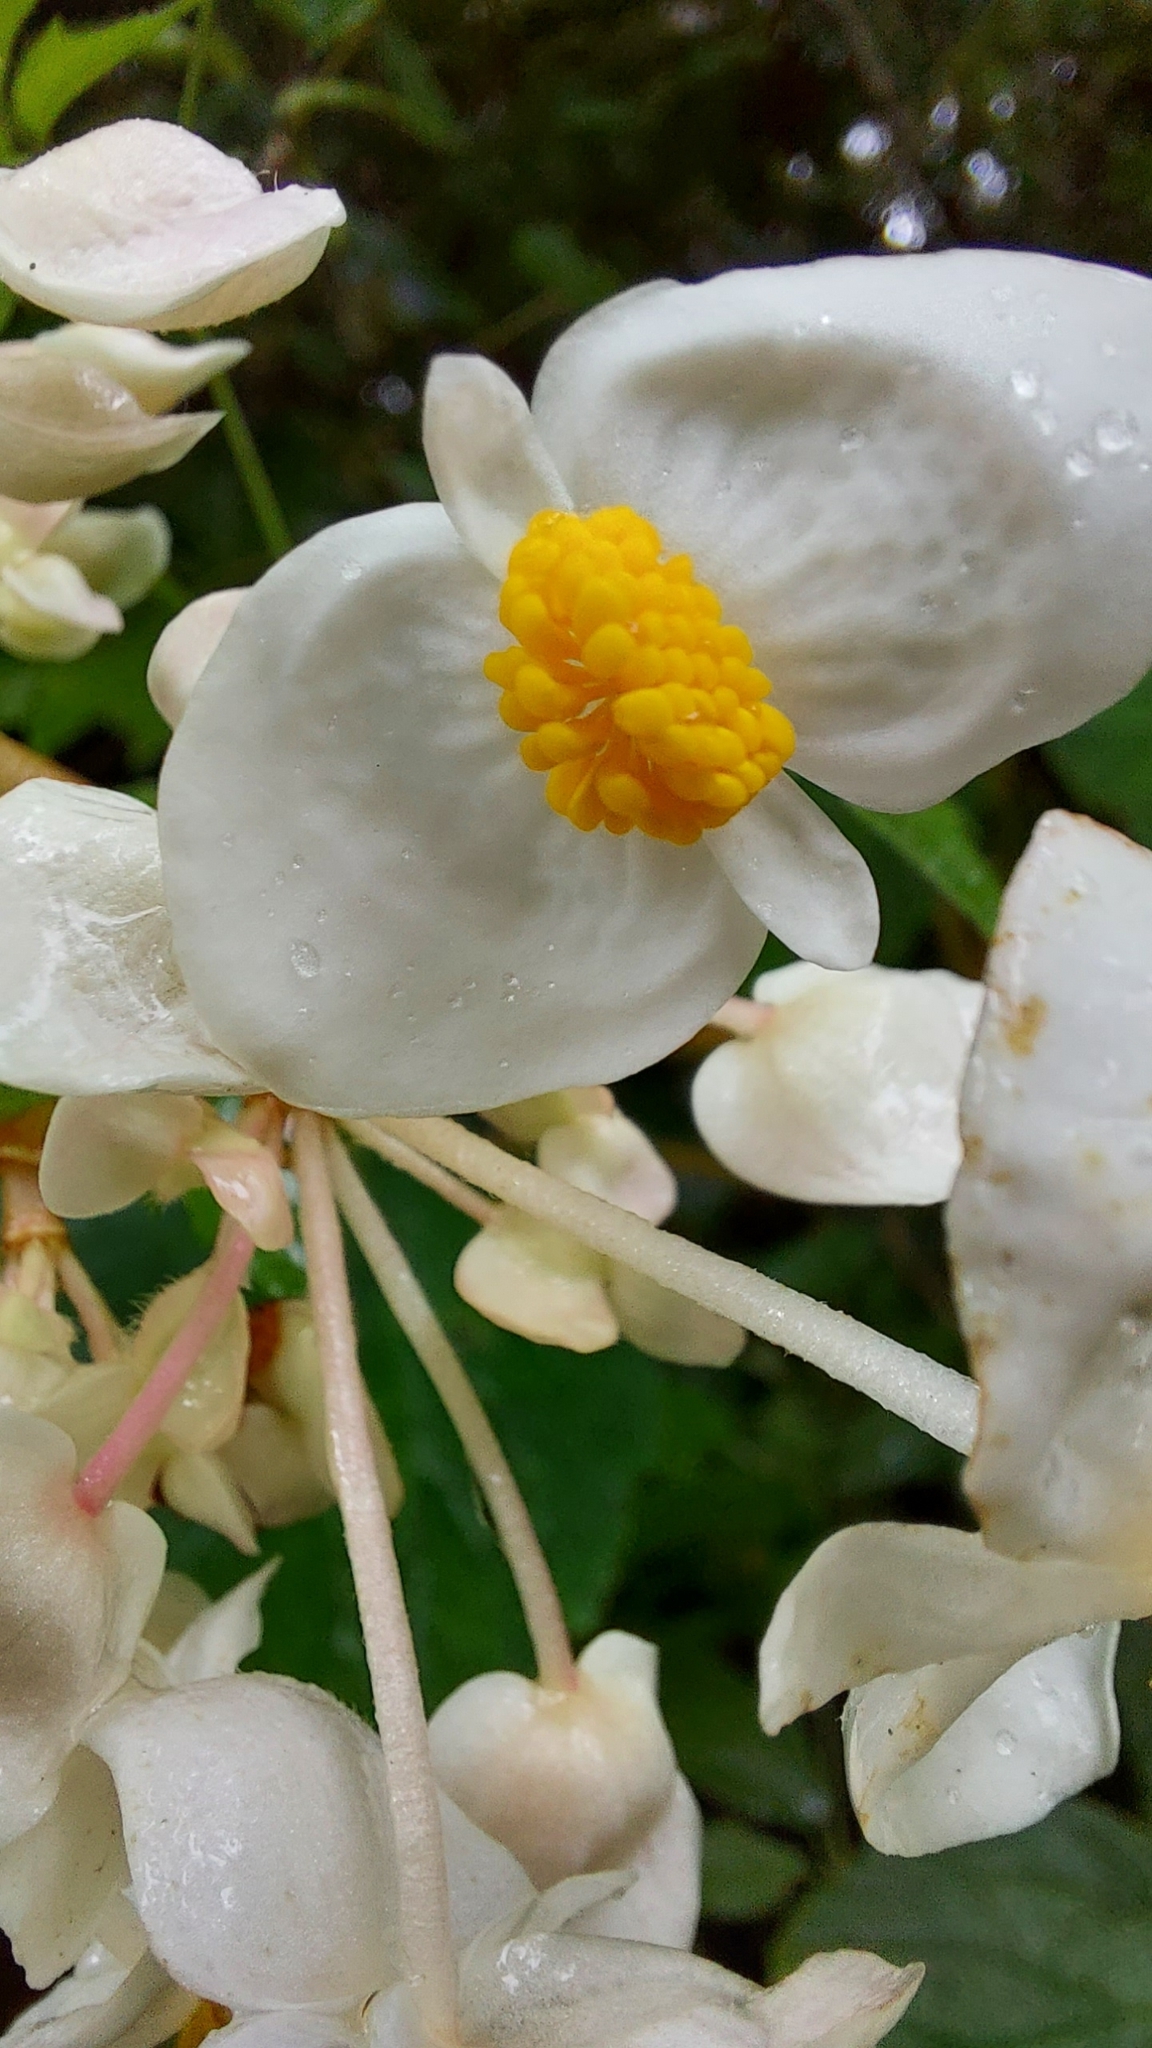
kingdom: Plantae
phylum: Tracheophyta
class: Magnoliopsida
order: Cucurbitales
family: Begoniaceae
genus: Begonia
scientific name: Begonia involucrata
